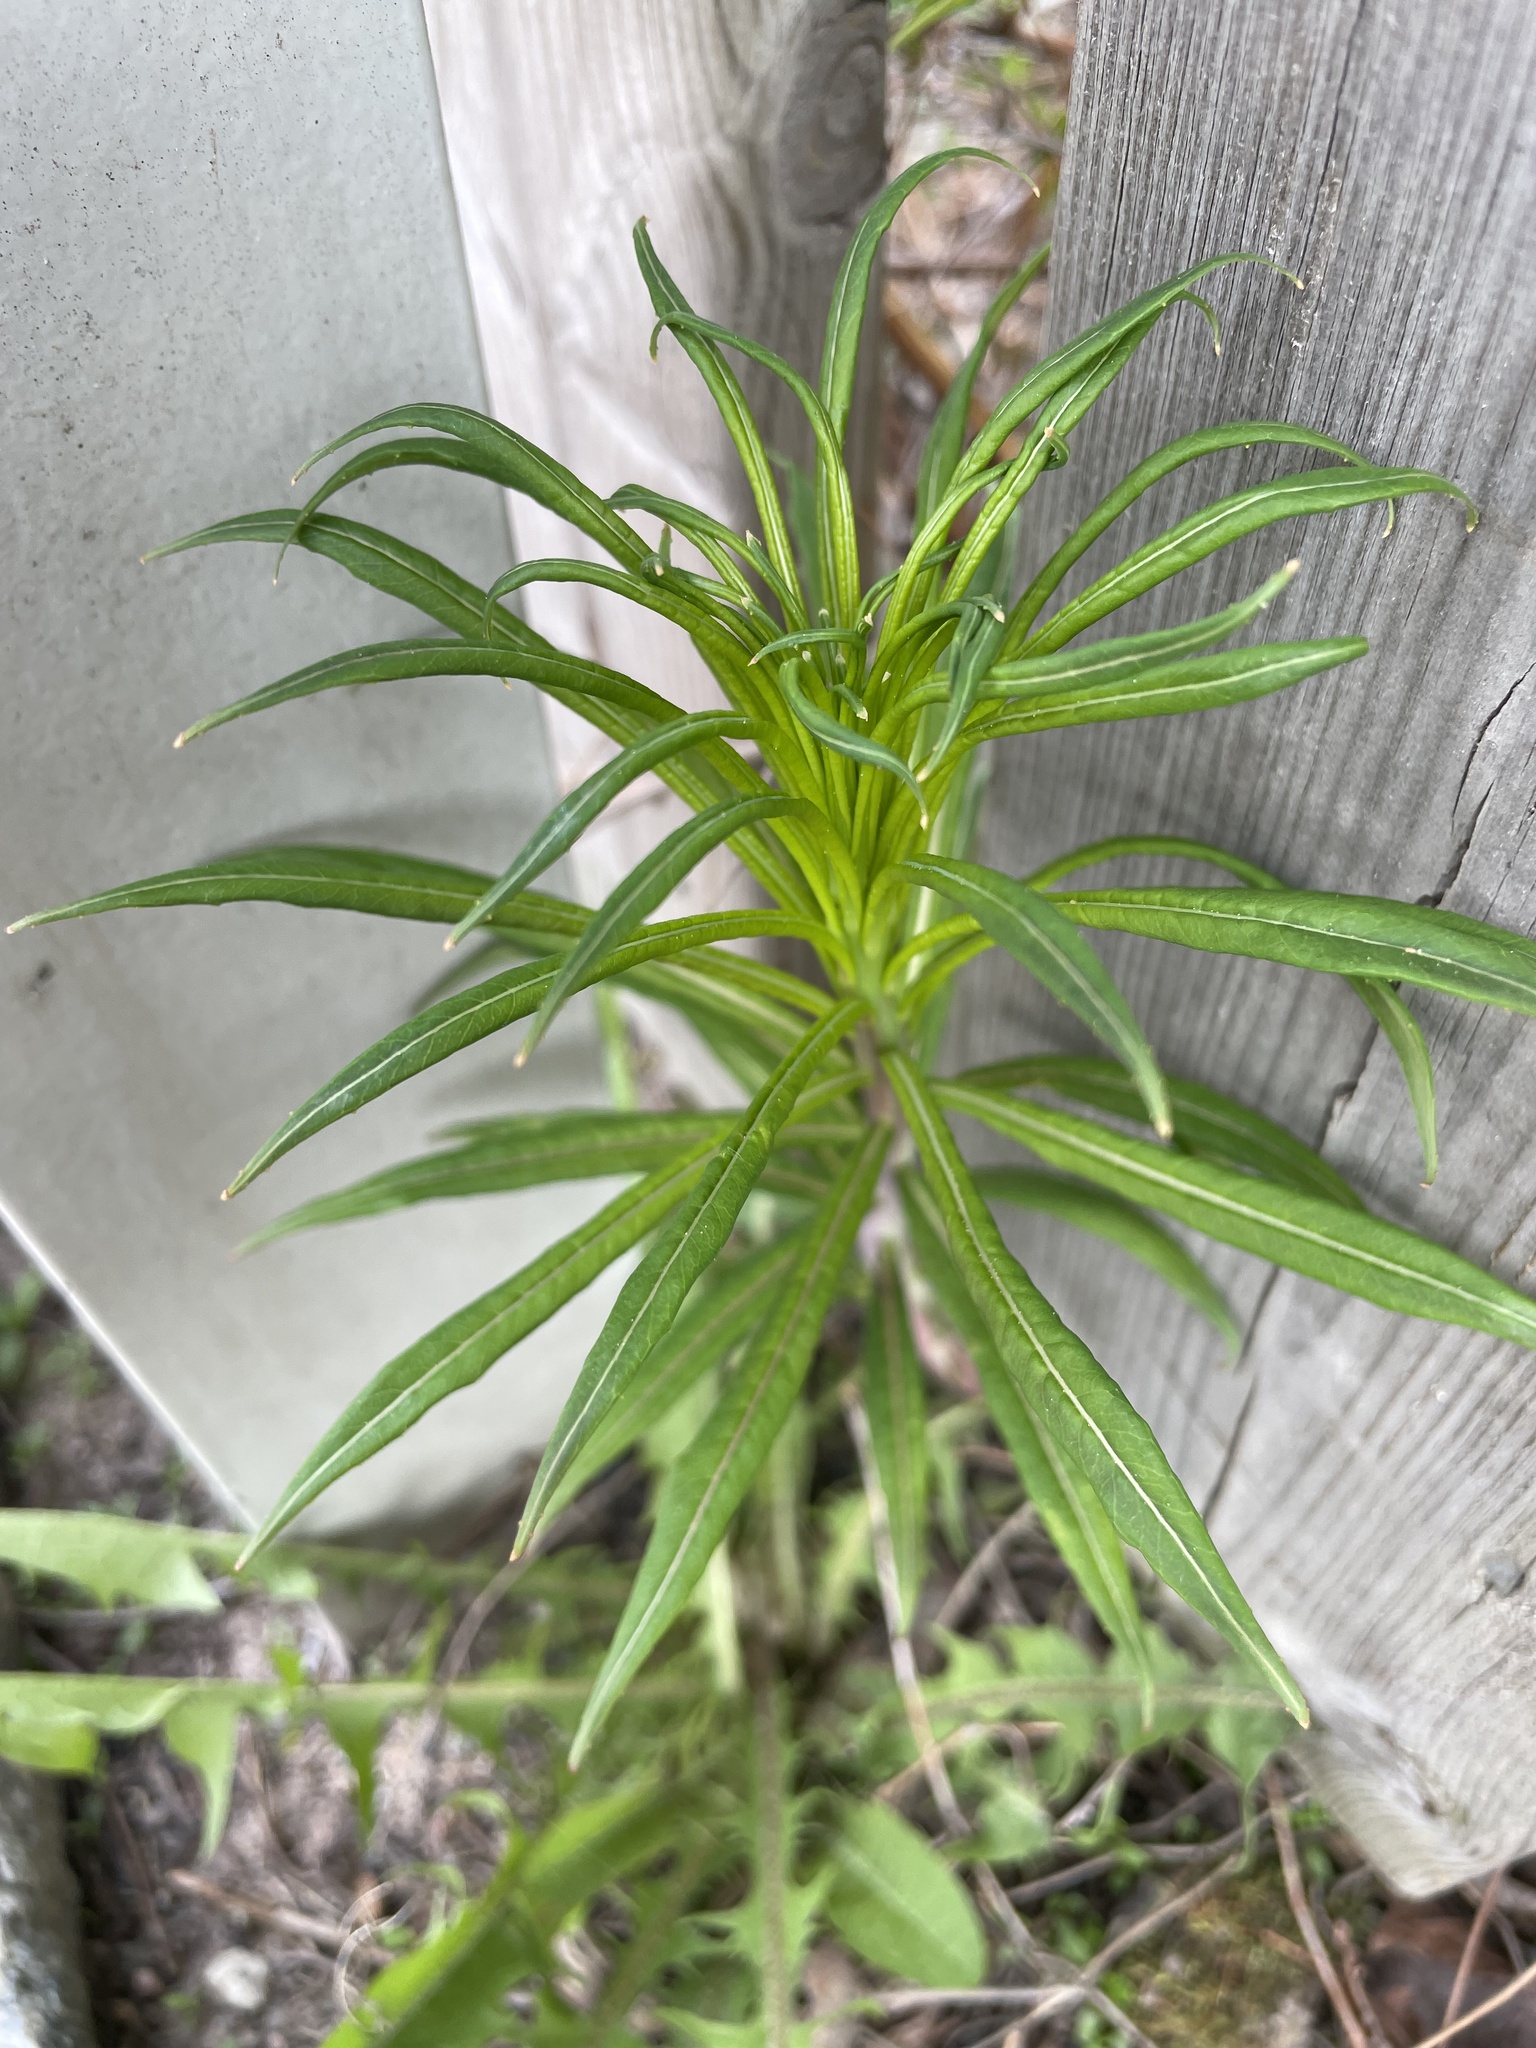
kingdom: Plantae
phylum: Tracheophyta
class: Magnoliopsida
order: Myrtales
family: Onagraceae
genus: Chamaenerion
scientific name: Chamaenerion angustifolium
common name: Fireweed
